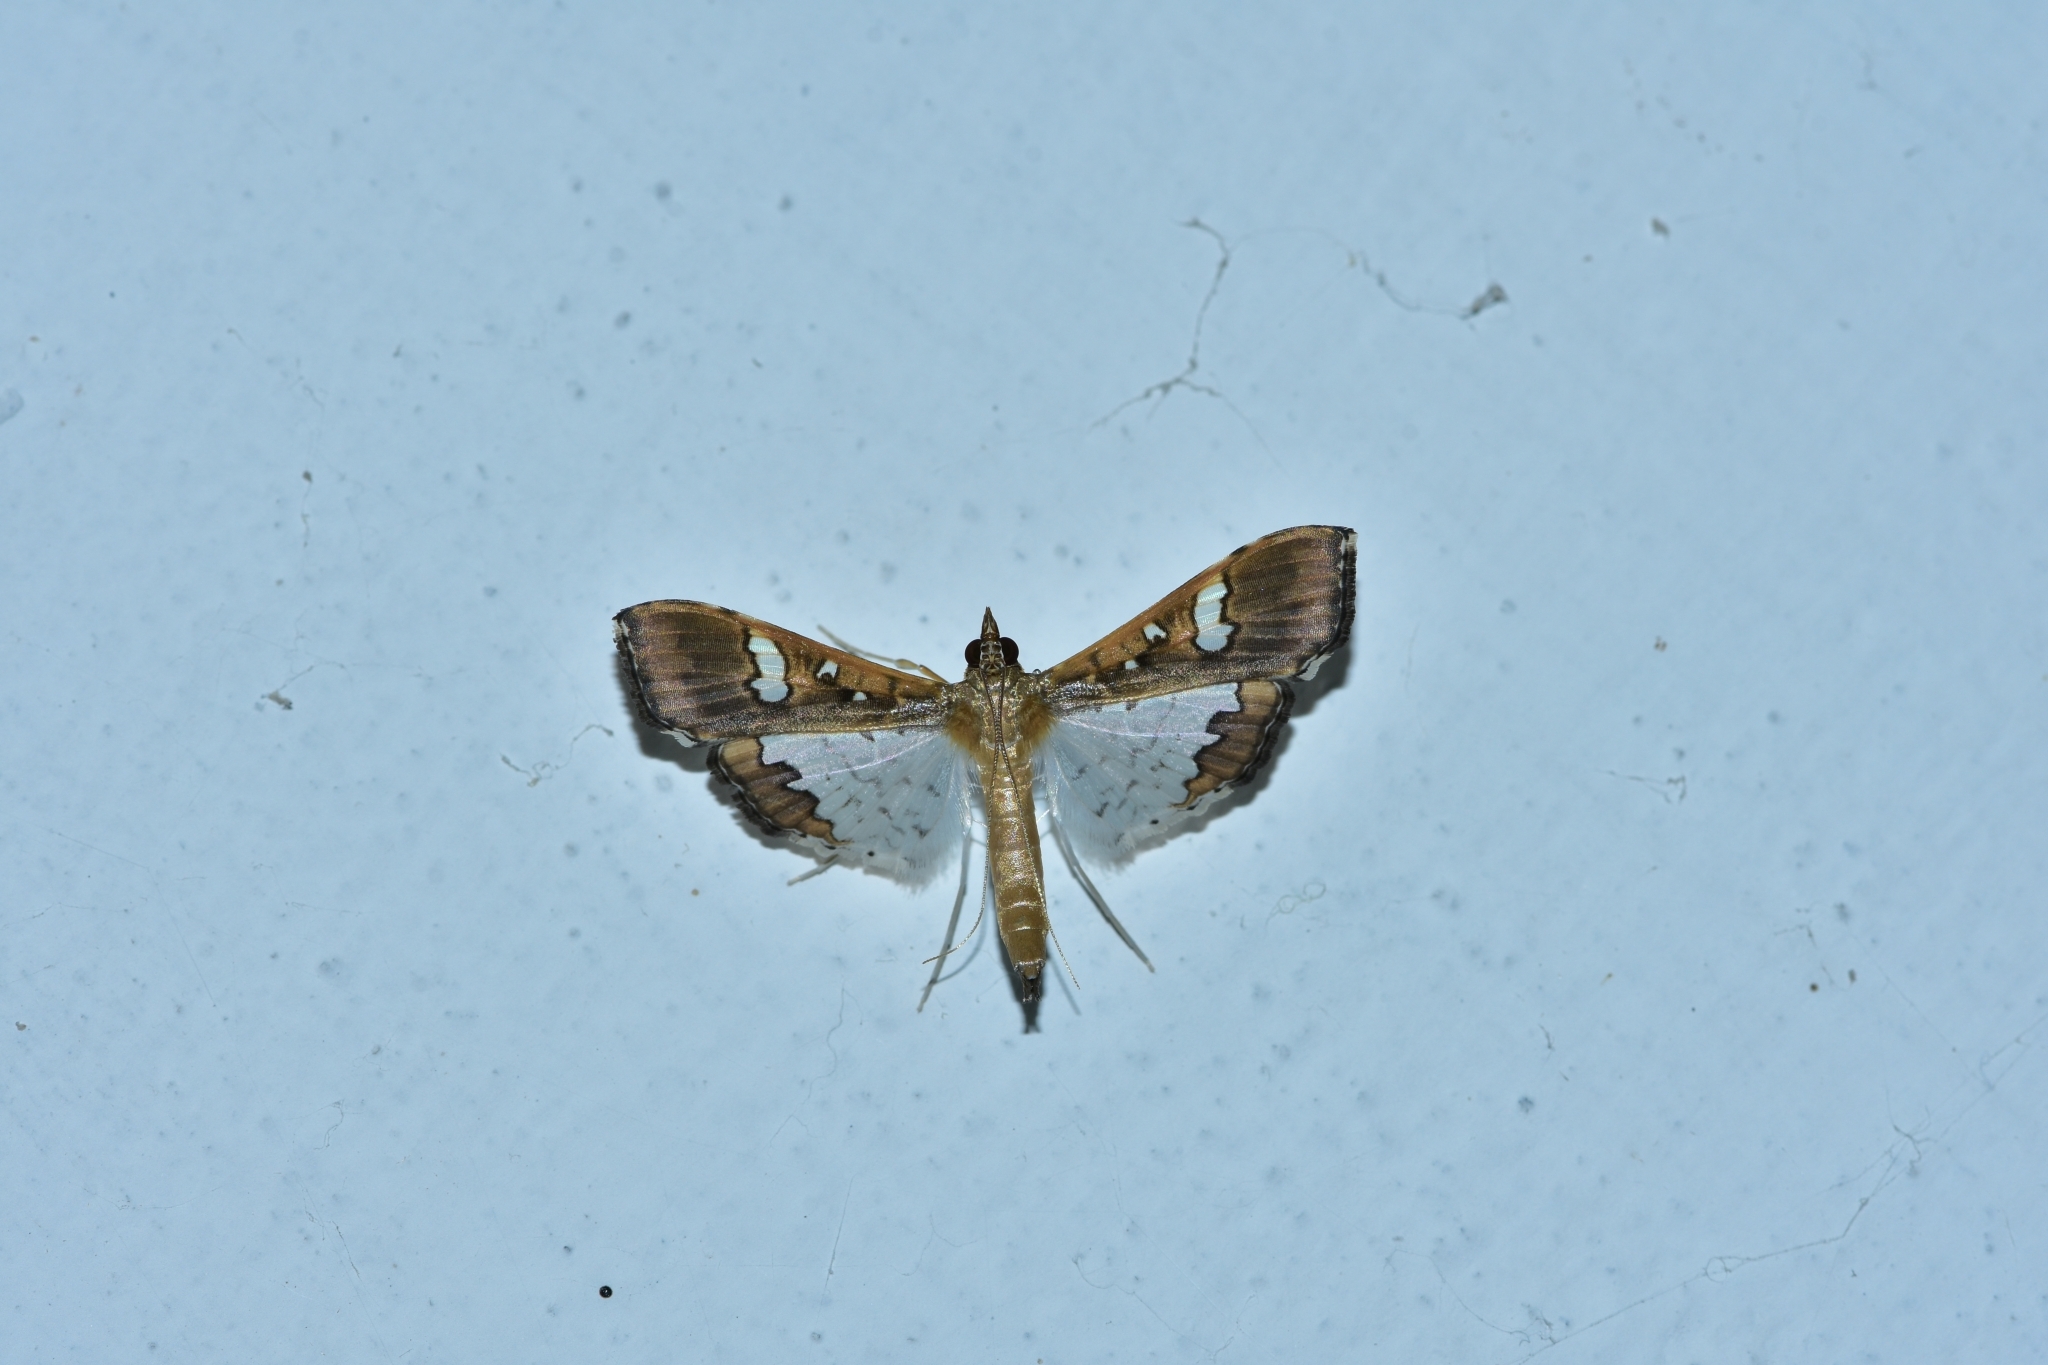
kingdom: Animalia
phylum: Arthropoda
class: Insecta
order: Lepidoptera
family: Crambidae
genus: Maruca
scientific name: Maruca vitrata
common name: Maruca pod borer
